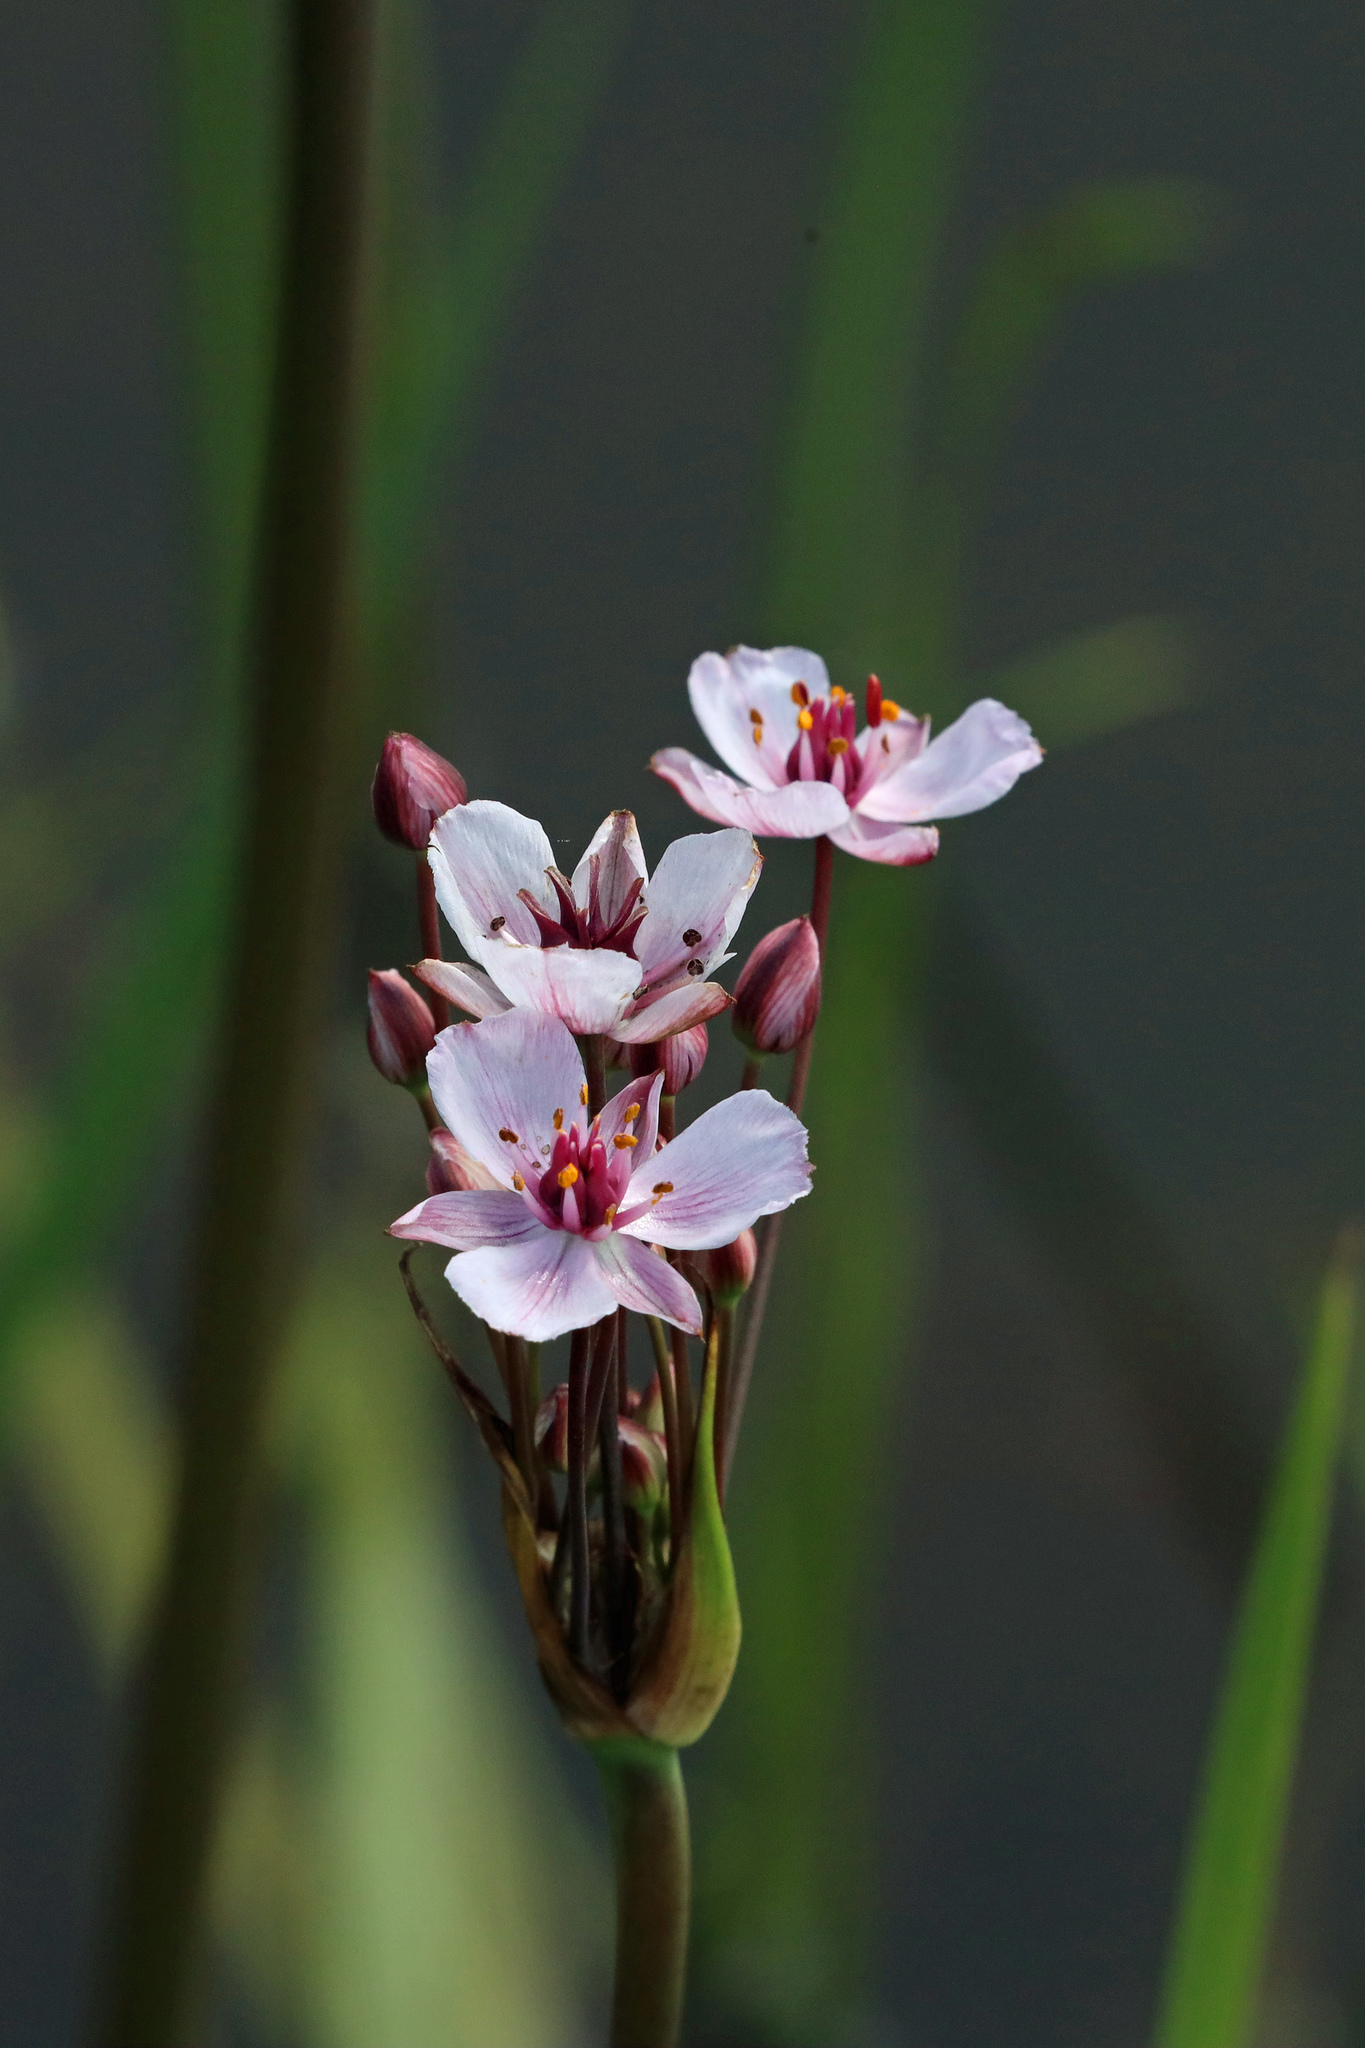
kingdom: Plantae
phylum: Tracheophyta
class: Liliopsida
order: Alismatales
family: Butomaceae
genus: Butomus
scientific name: Butomus umbellatus
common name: Flowering-rush
